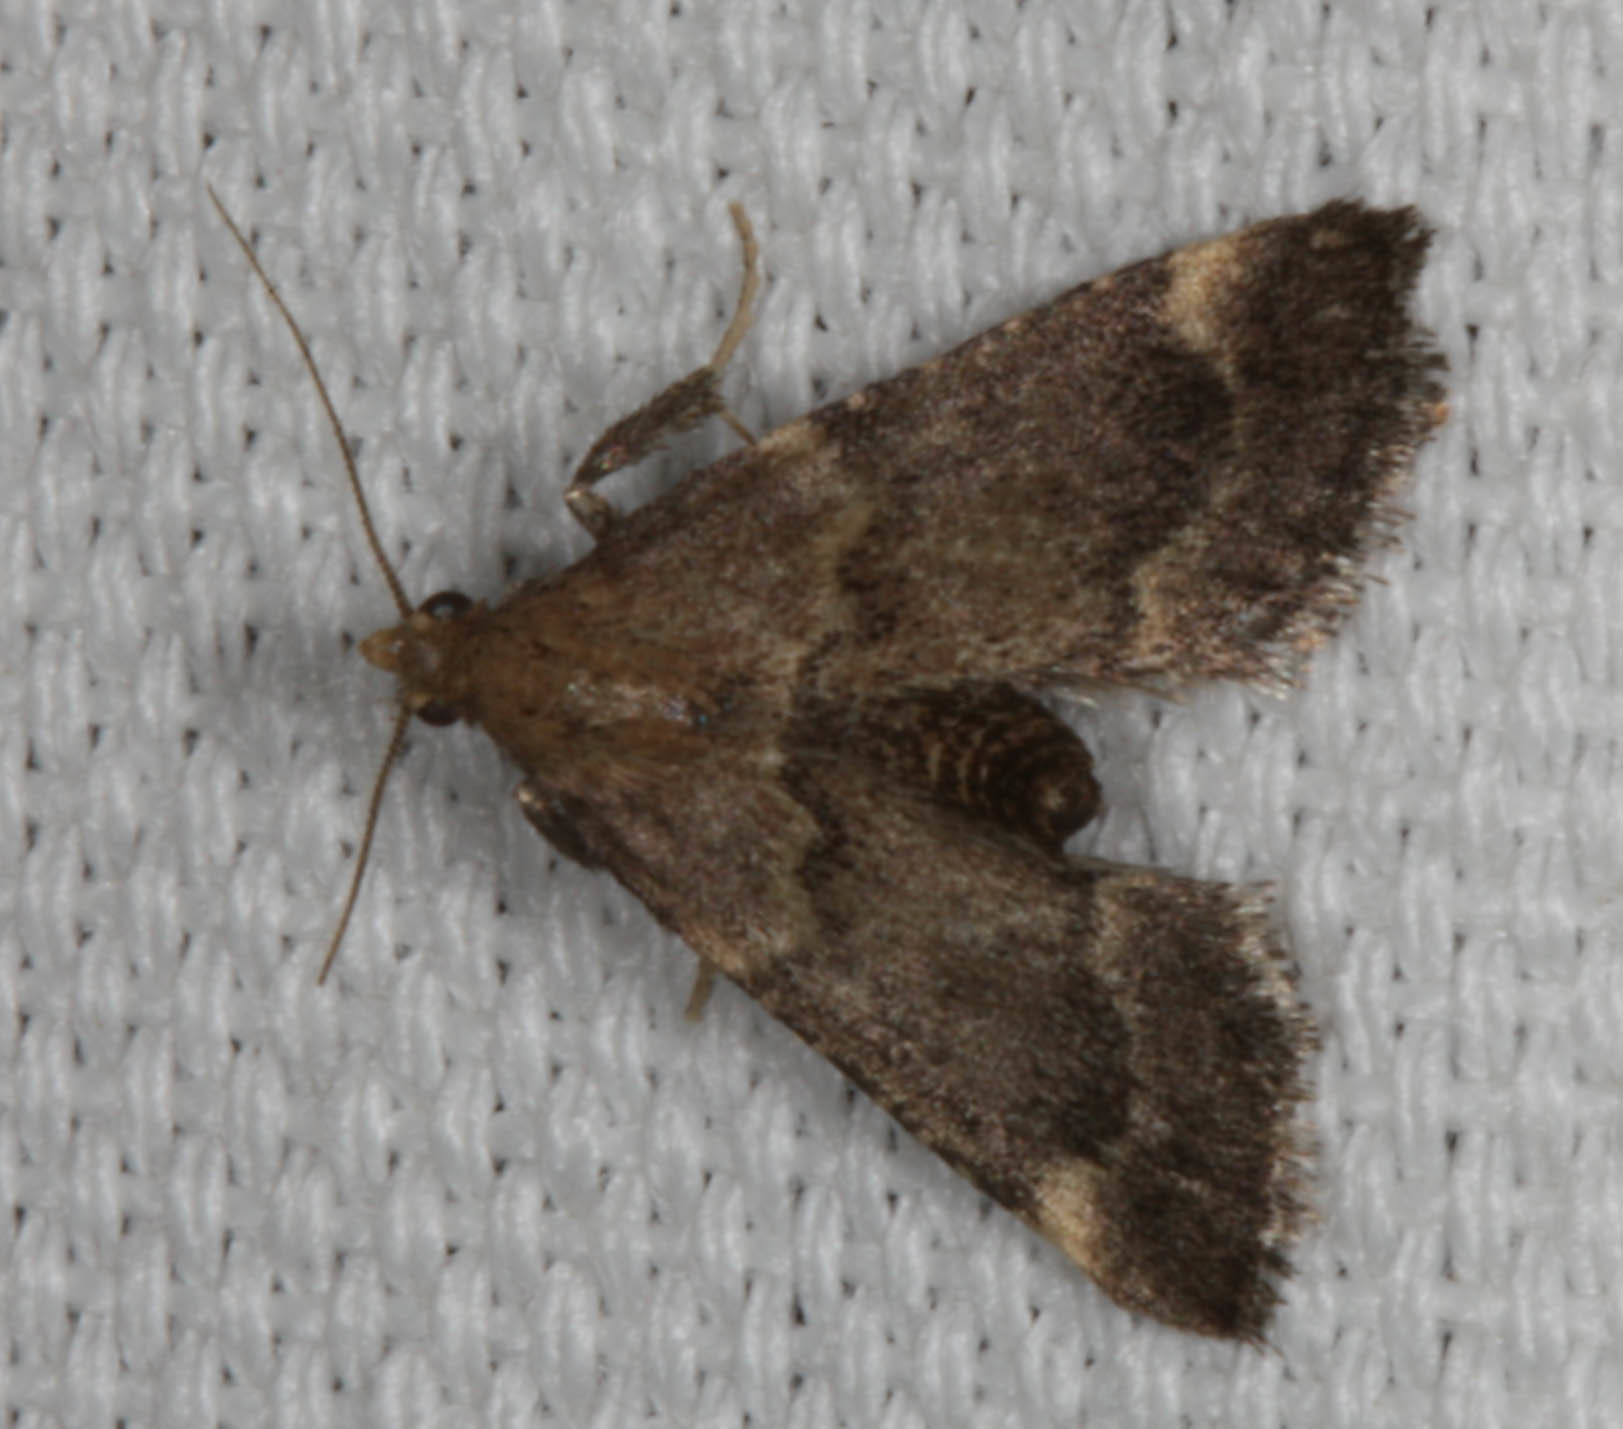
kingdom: Animalia
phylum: Arthropoda
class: Insecta
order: Lepidoptera
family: Pyralidae
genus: Hypsopygia
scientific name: Hypsopygia phoezalis
